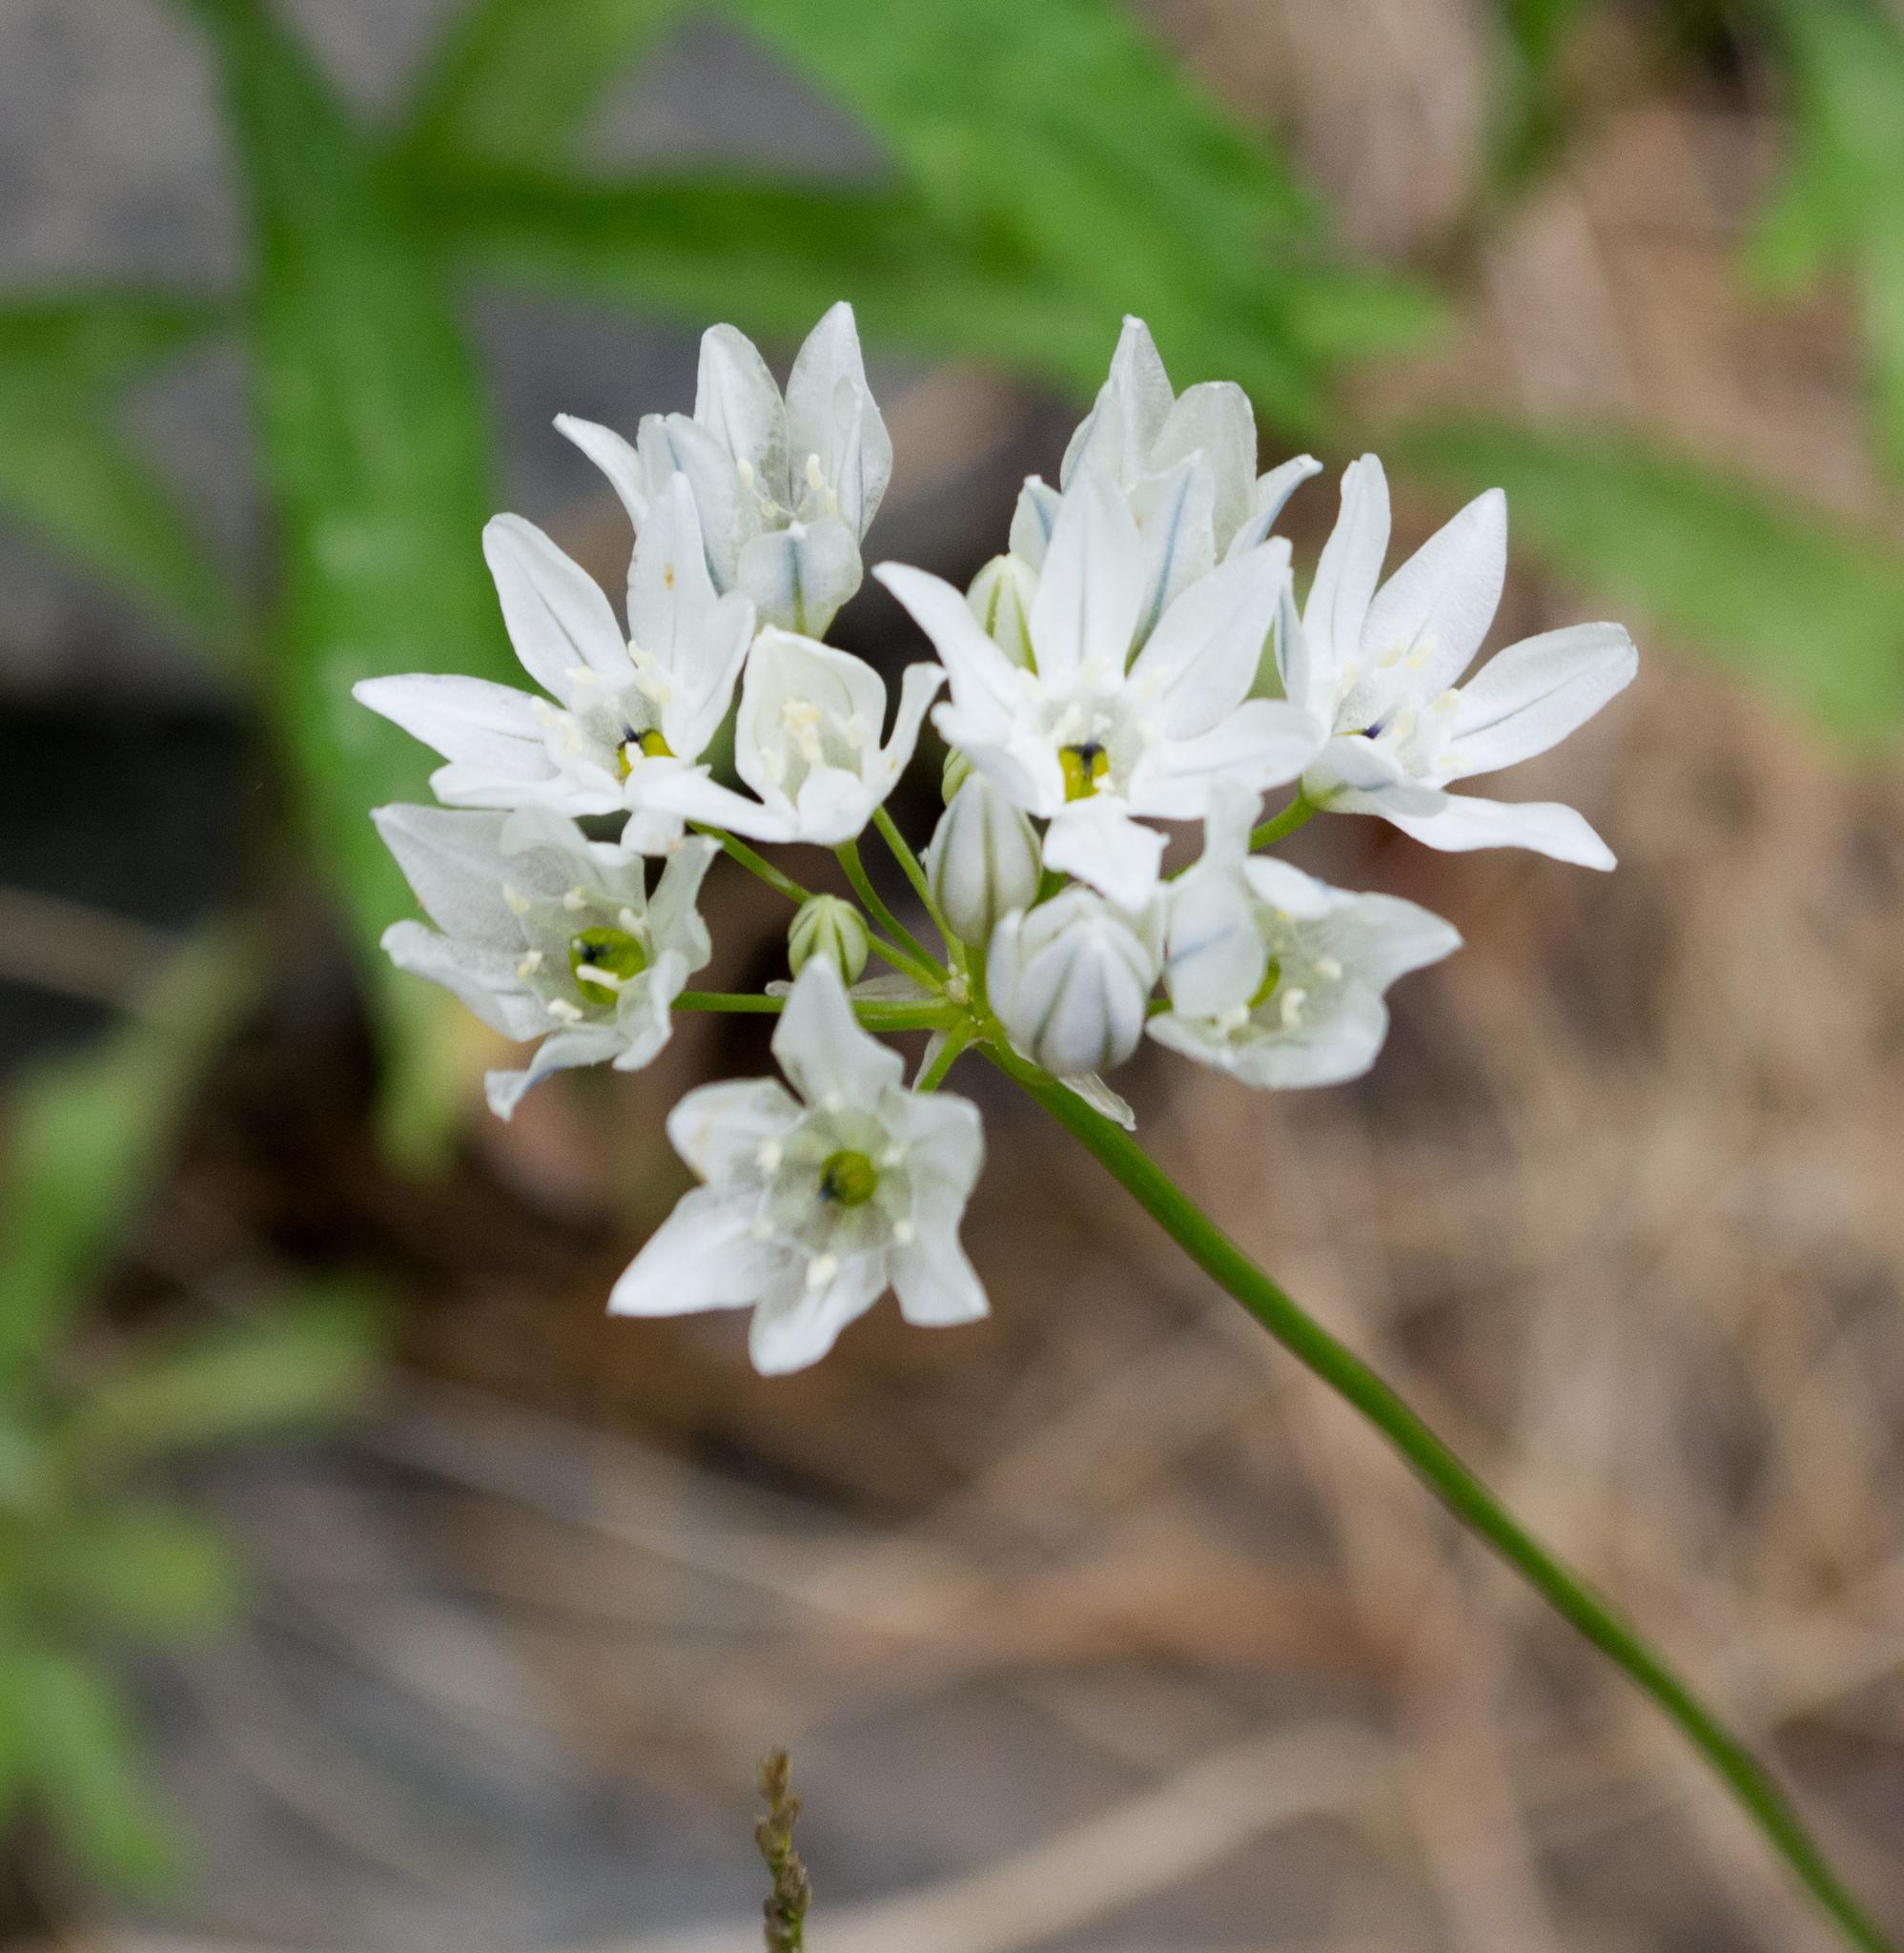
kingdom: Plantae
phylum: Tracheophyta
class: Liliopsida
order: Asparagales
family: Asparagaceae
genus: Triteleia
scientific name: Triteleia hyacinthina
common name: White brodiaea
